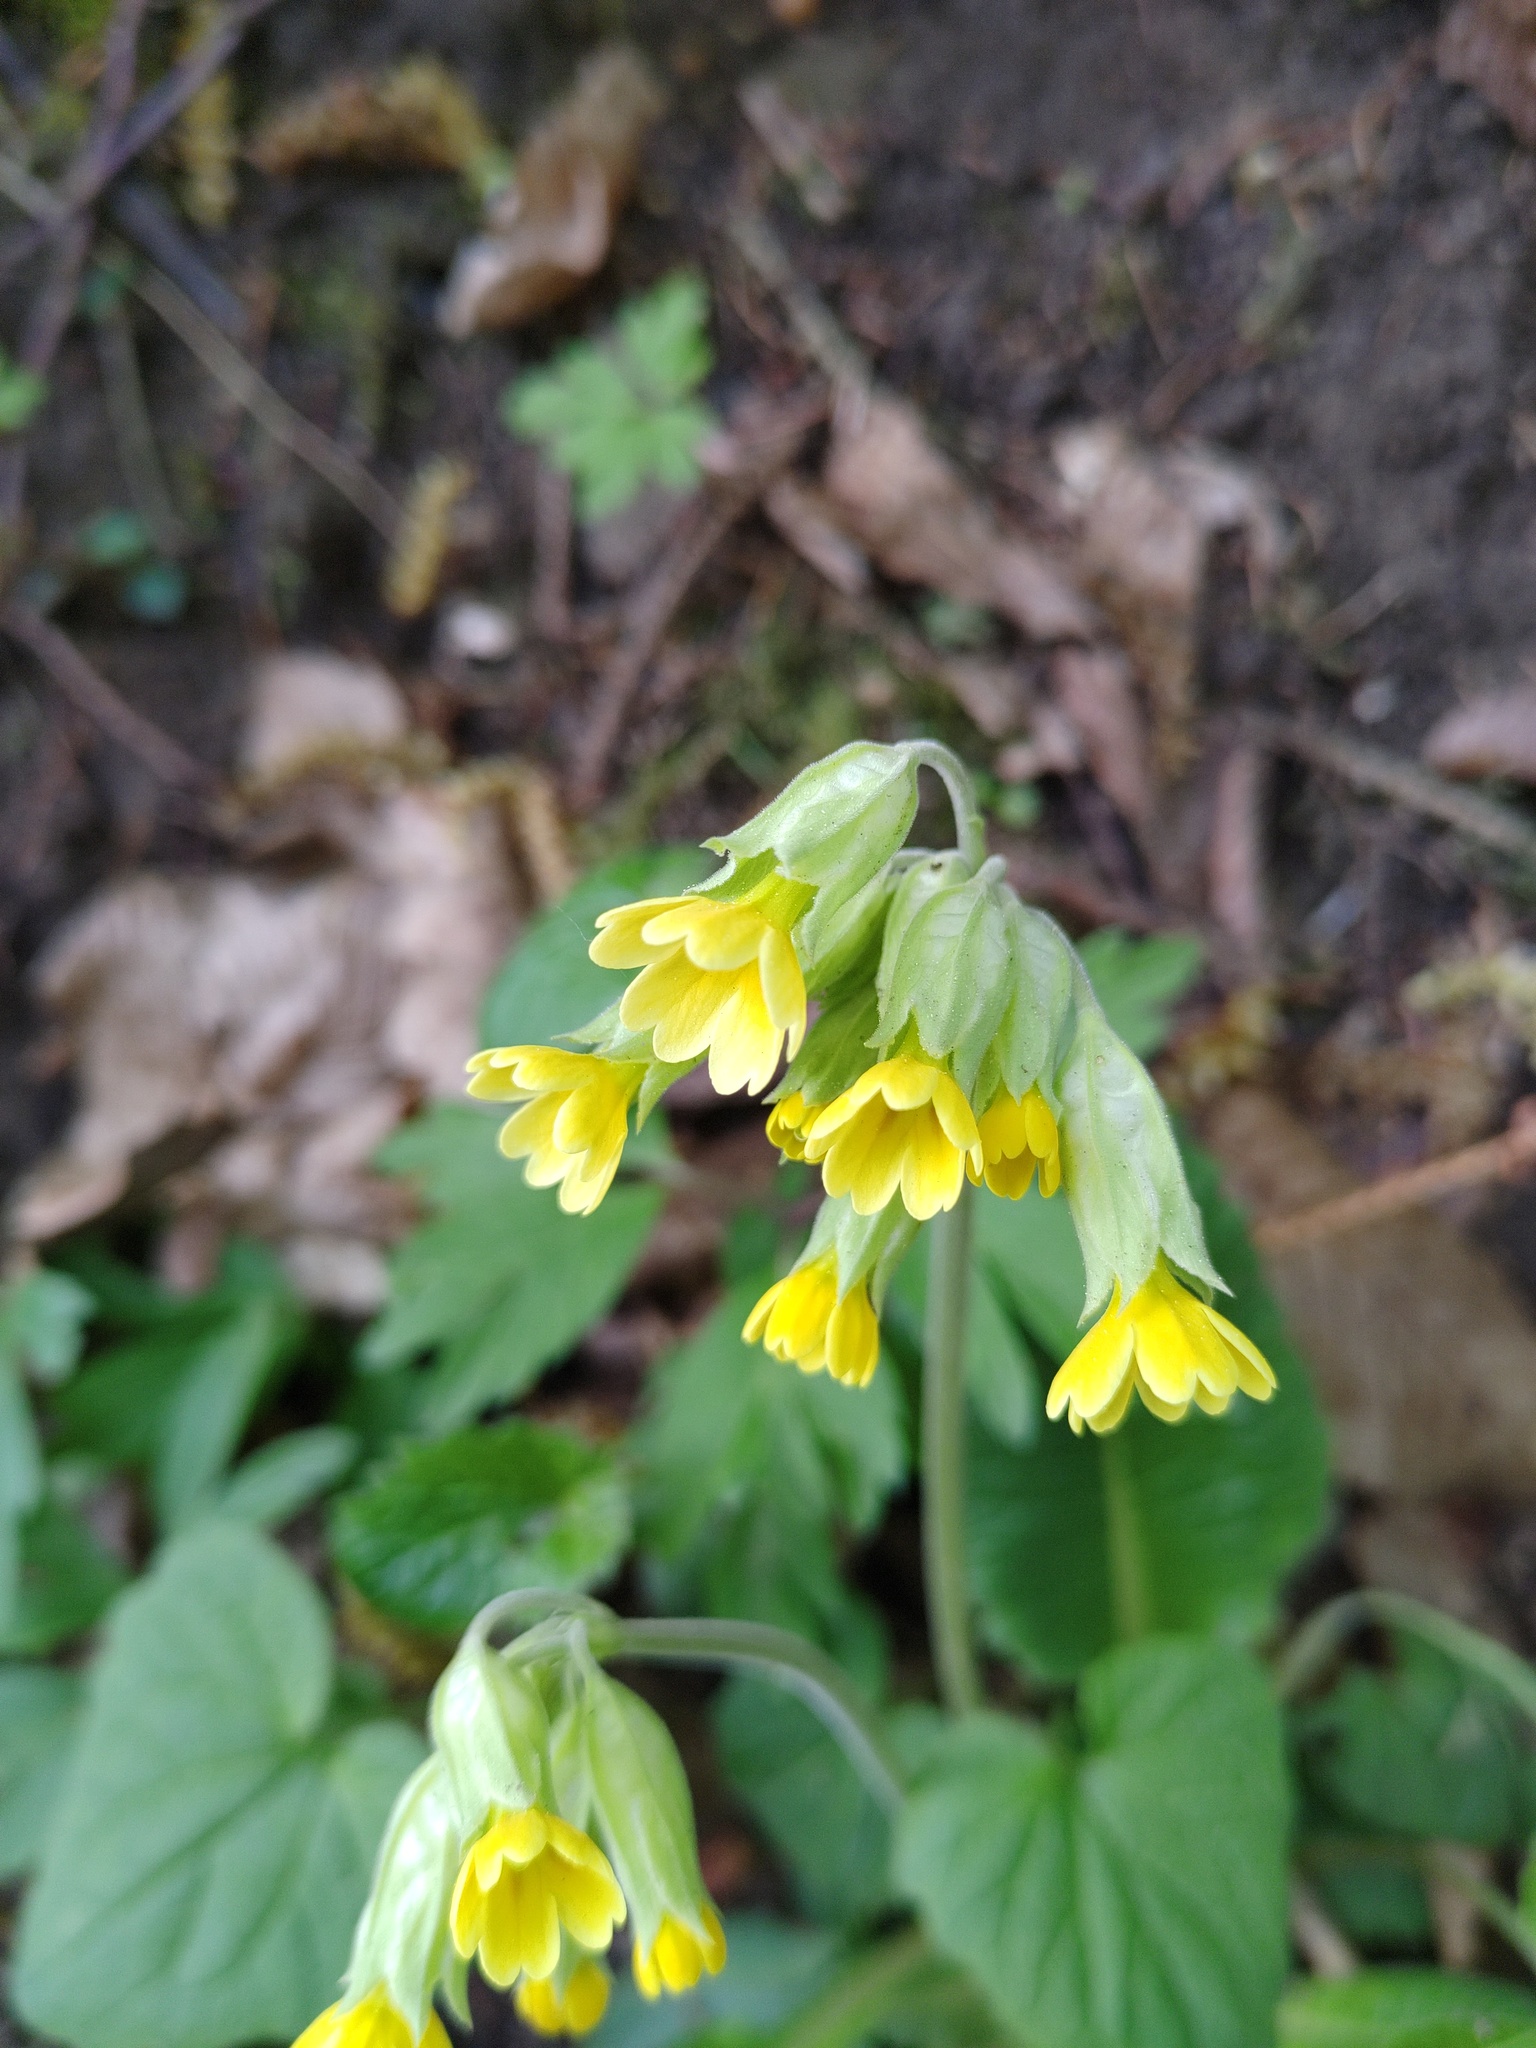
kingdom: Plantae
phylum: Tracheophyta
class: Magnoliopsida
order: Ericales
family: Primulaceae
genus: Primula
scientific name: Primula veris
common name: Cowslip
